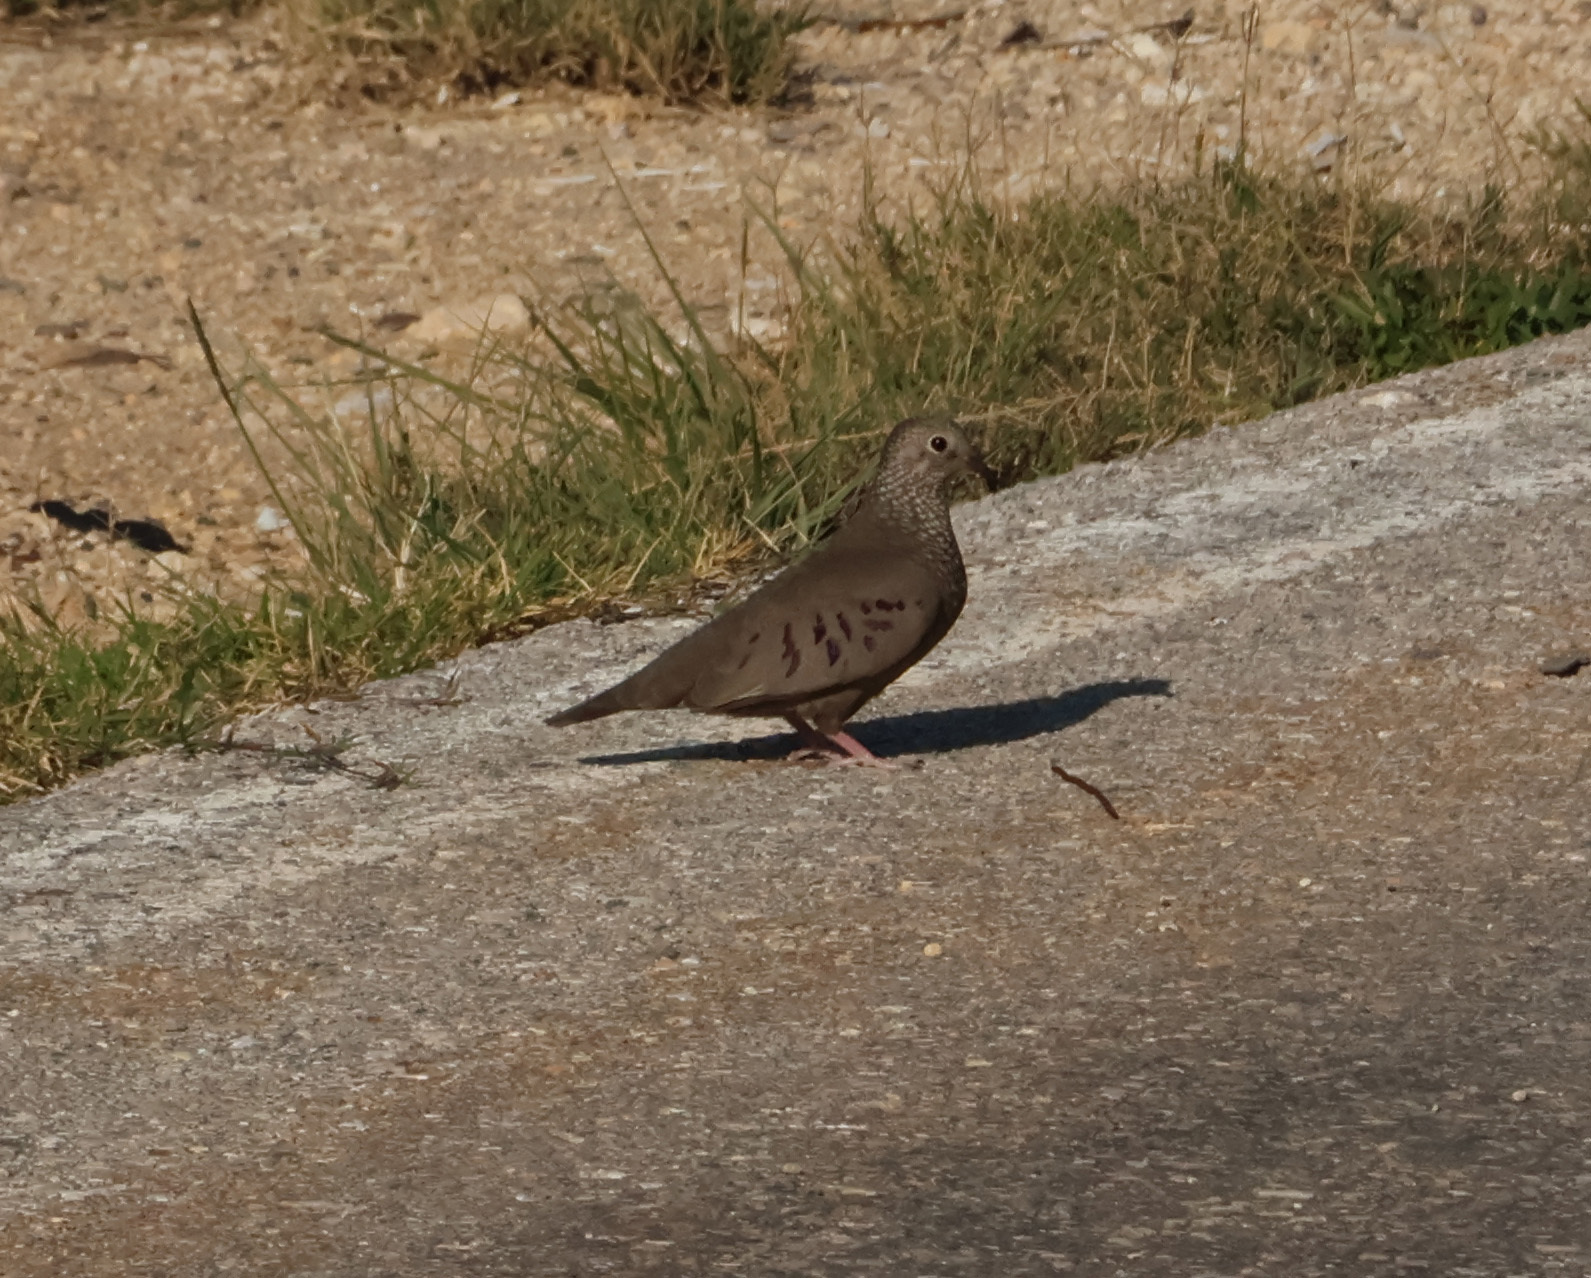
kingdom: Animalia
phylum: Chordata
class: Aves
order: Columbiformes
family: Columbidae
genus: Columbina
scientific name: Columbina passerina
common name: Common ground-dove
